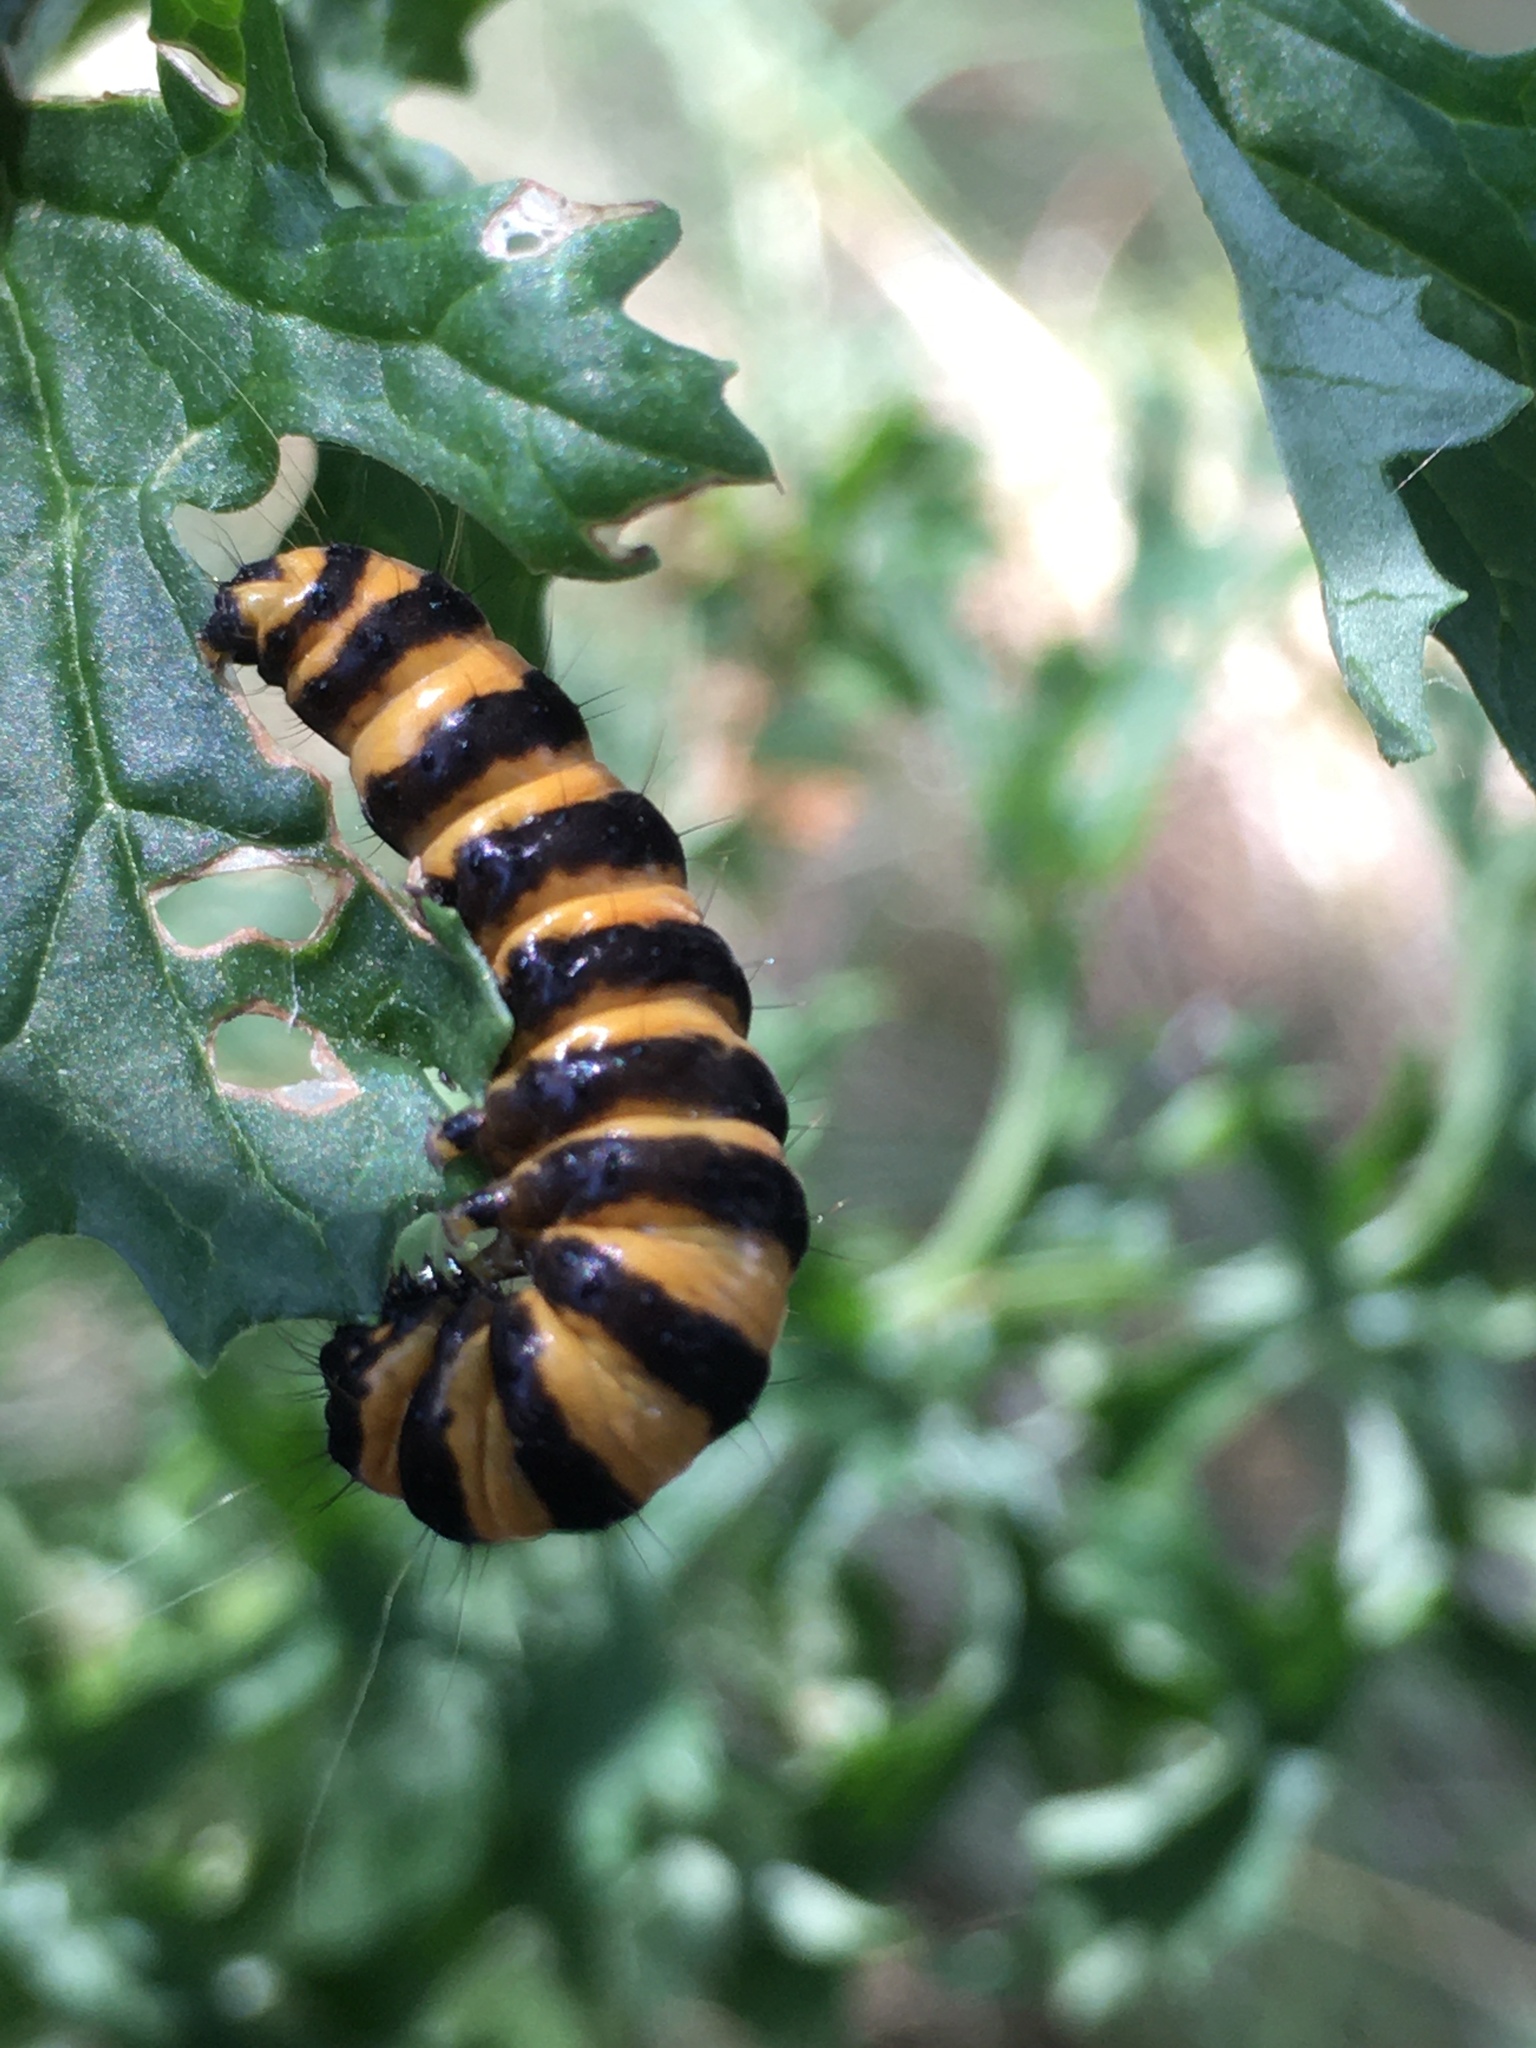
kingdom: Animalia
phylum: Arthropoda
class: Insecta
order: Lepidoptera
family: Erebidae
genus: Tyria
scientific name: Tyria jacobaeae
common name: Cinnabar
